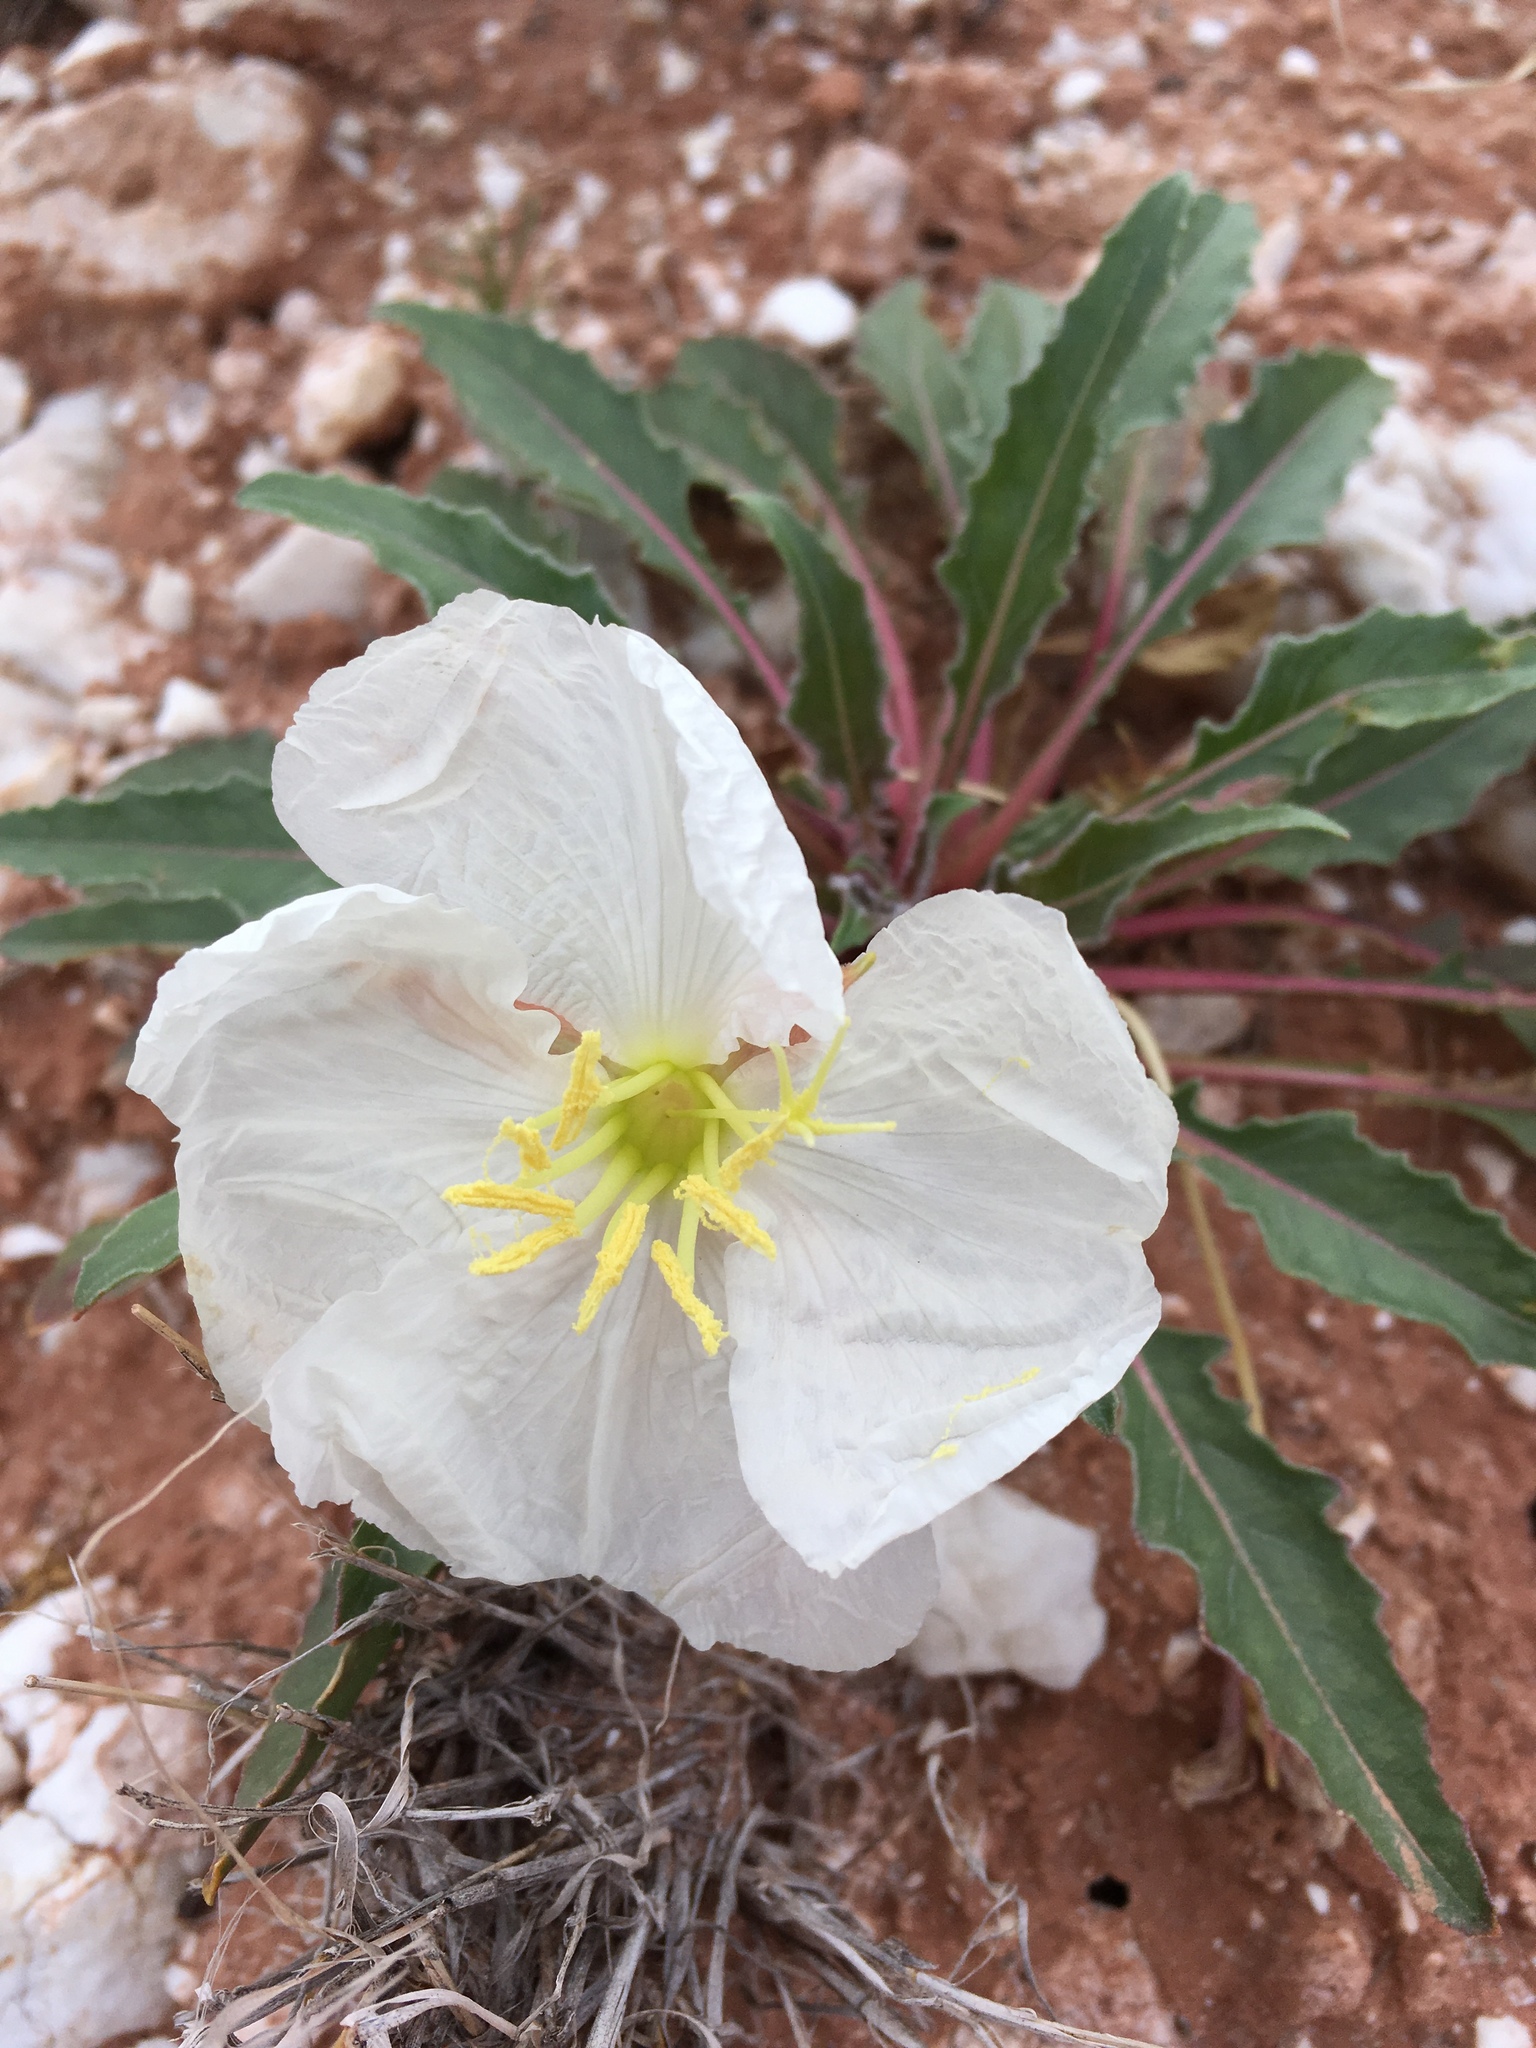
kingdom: Plantae
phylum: Tracheophyta
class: Magnoliopsida
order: Myrtales
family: Onagraceae
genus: Oenothera
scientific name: Oenothera cespitosa
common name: Tufted evening-primrose
